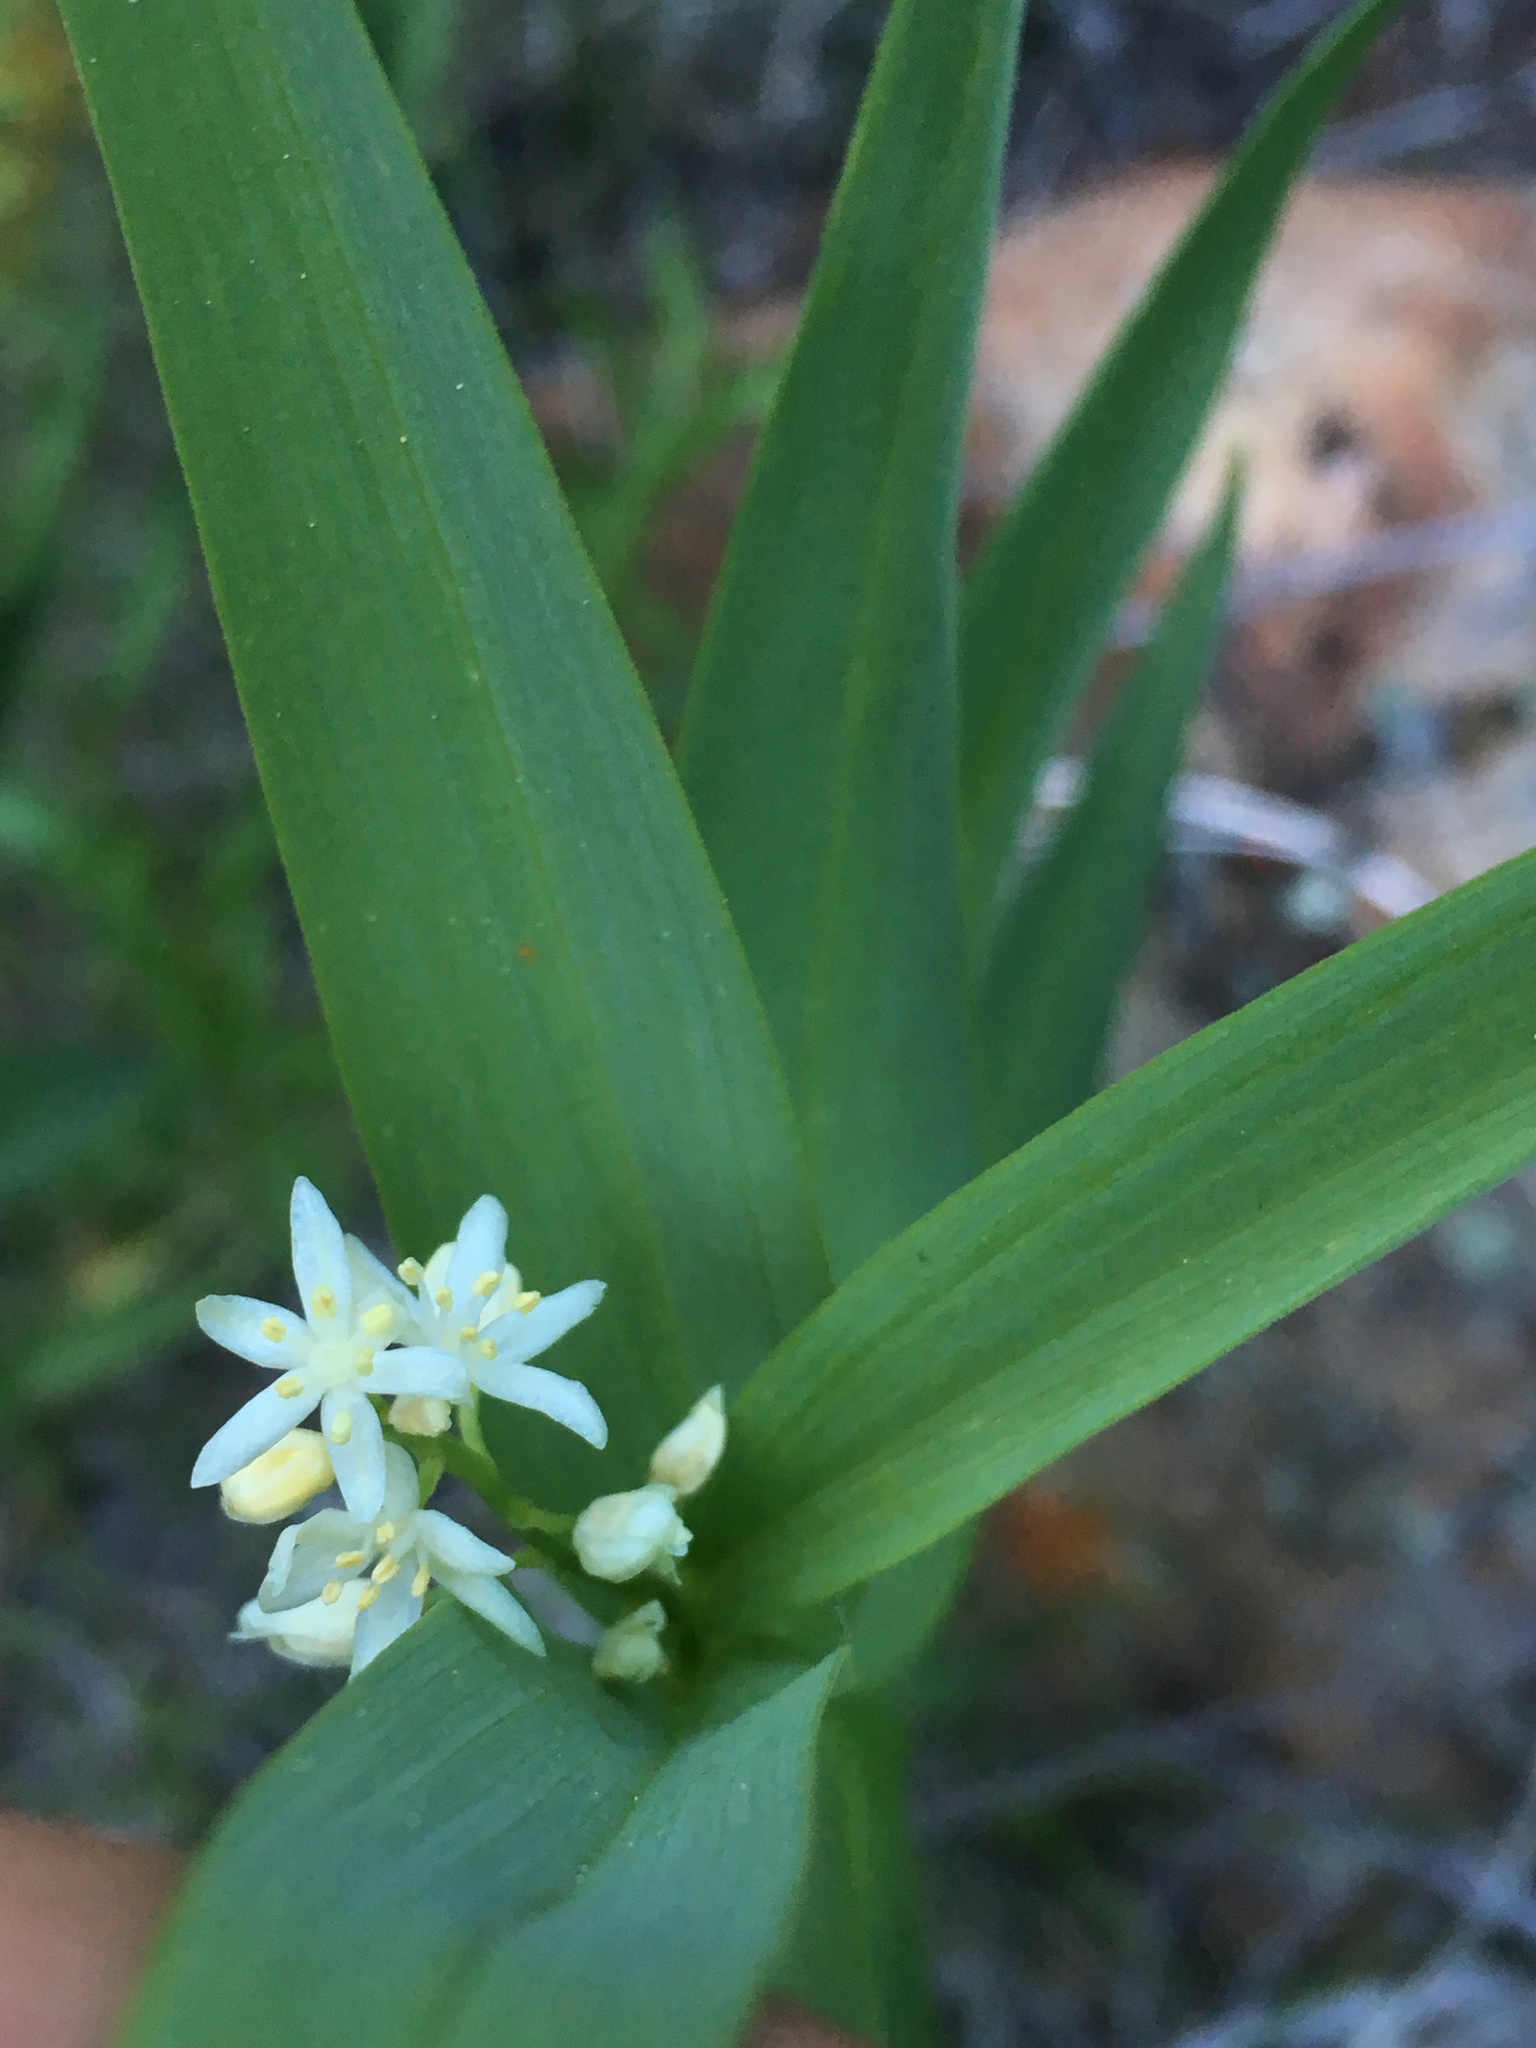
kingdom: Plantae
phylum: Tracheophyta
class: Liliopsida
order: Asparagales
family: Asparagaceae
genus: Maianthemum
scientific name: Maianthemum stellatum
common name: Little false solomon's seal
